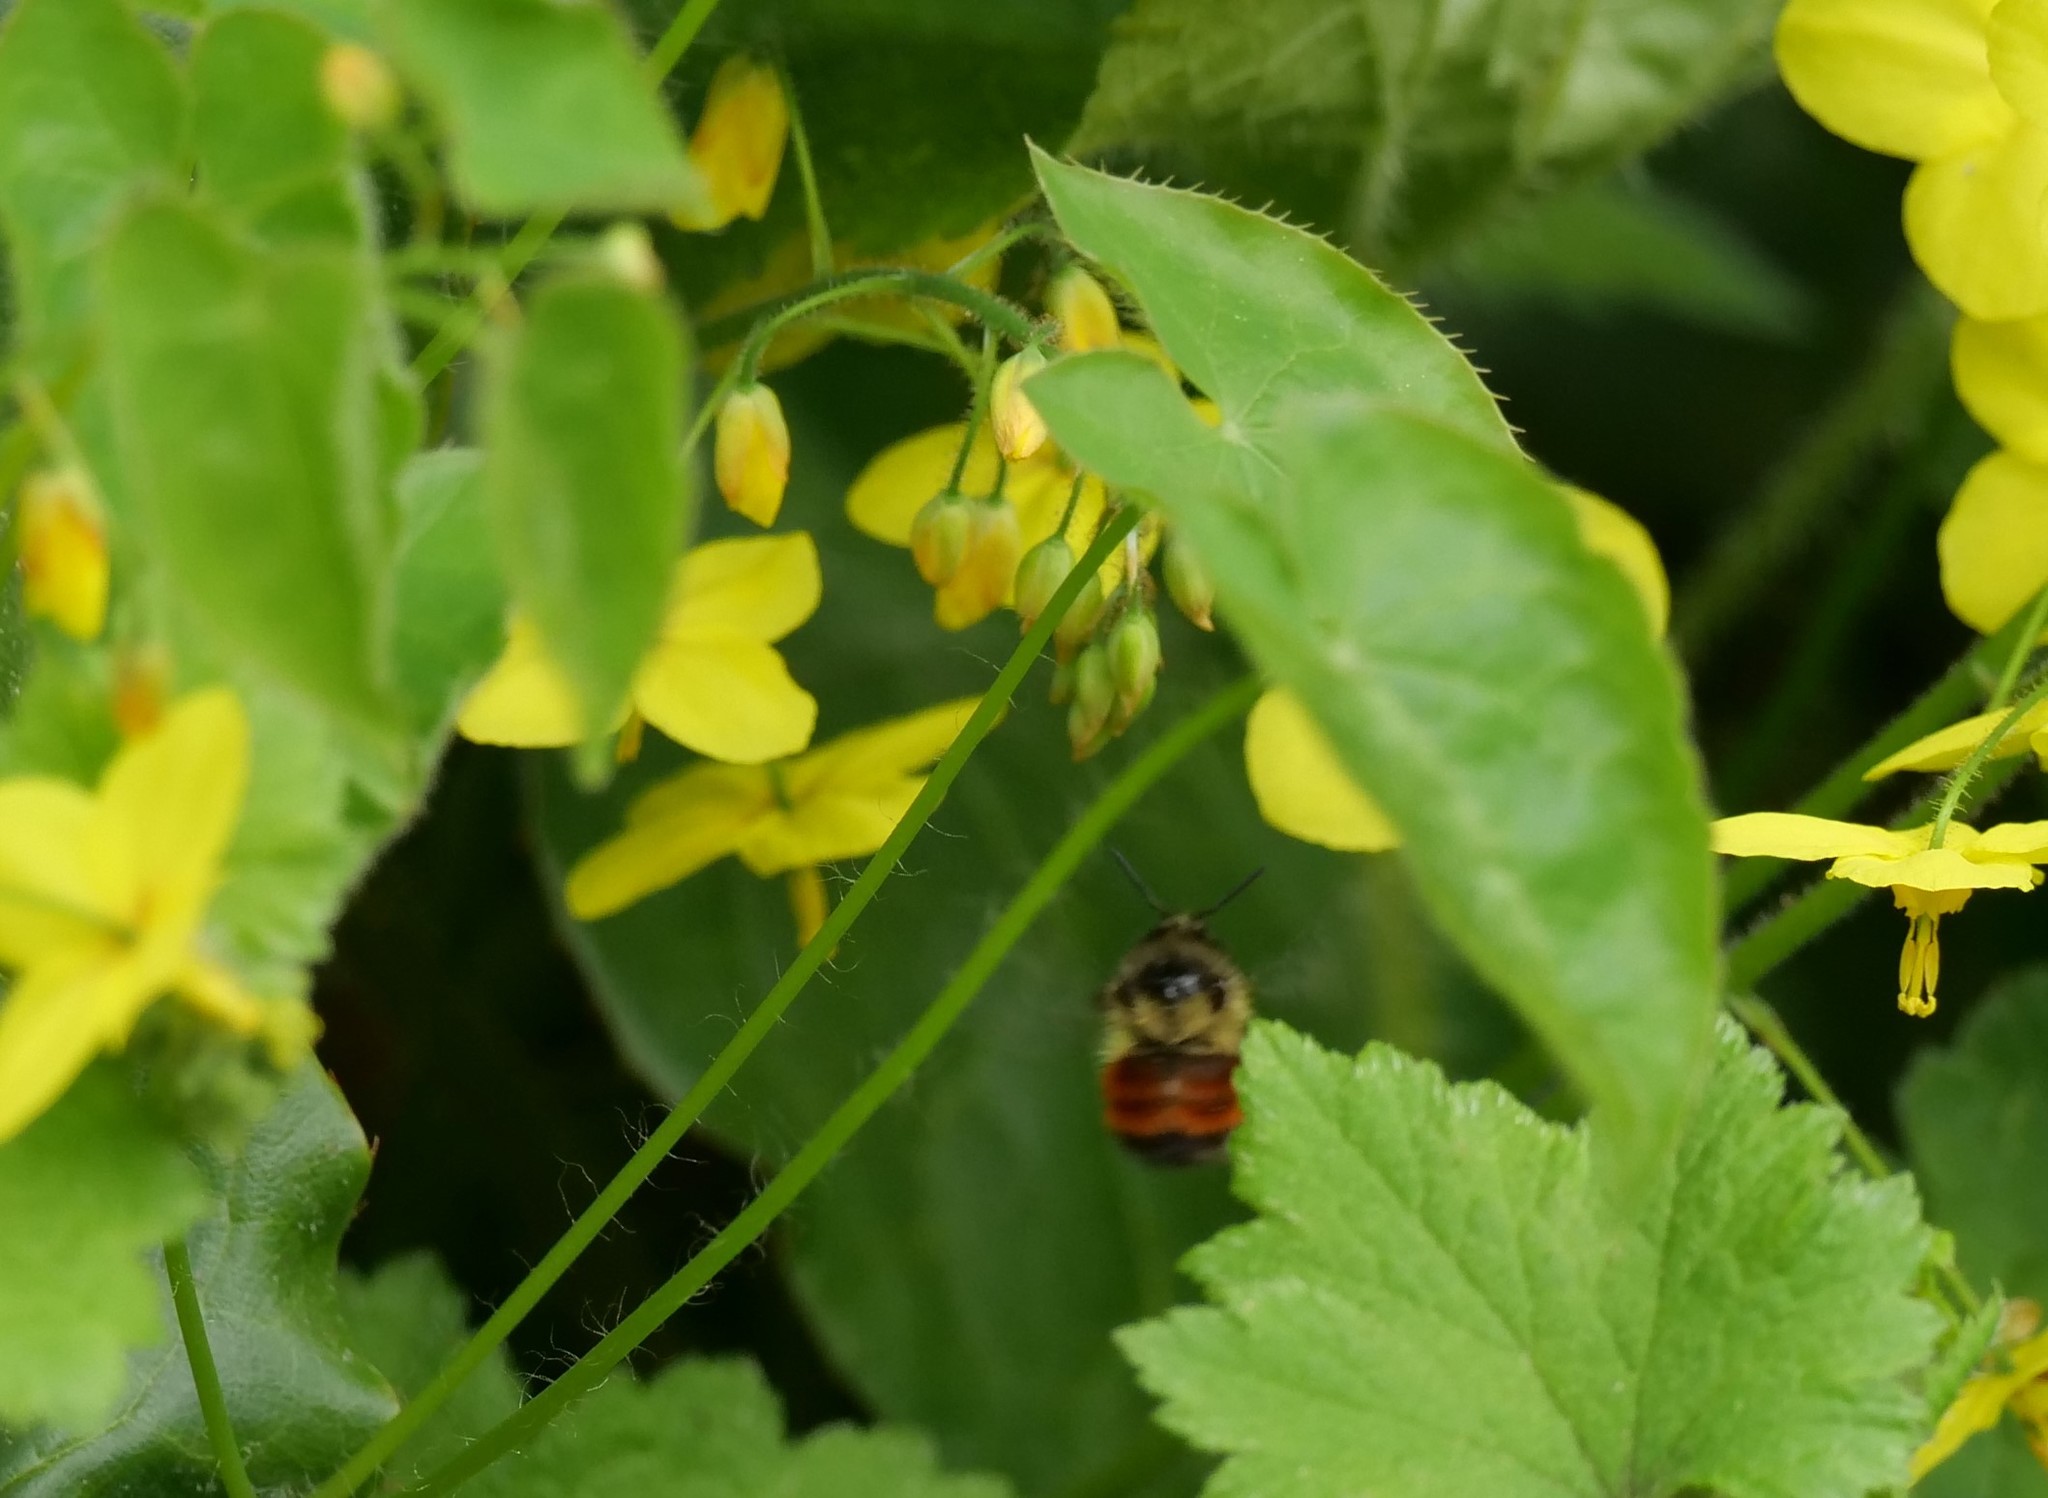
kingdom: Animalia
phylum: Arthropoda
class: Insecta
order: Hymenoptera
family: Apidae
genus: Bombus
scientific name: Bombus melanopygus
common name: Black tail bumble bee
